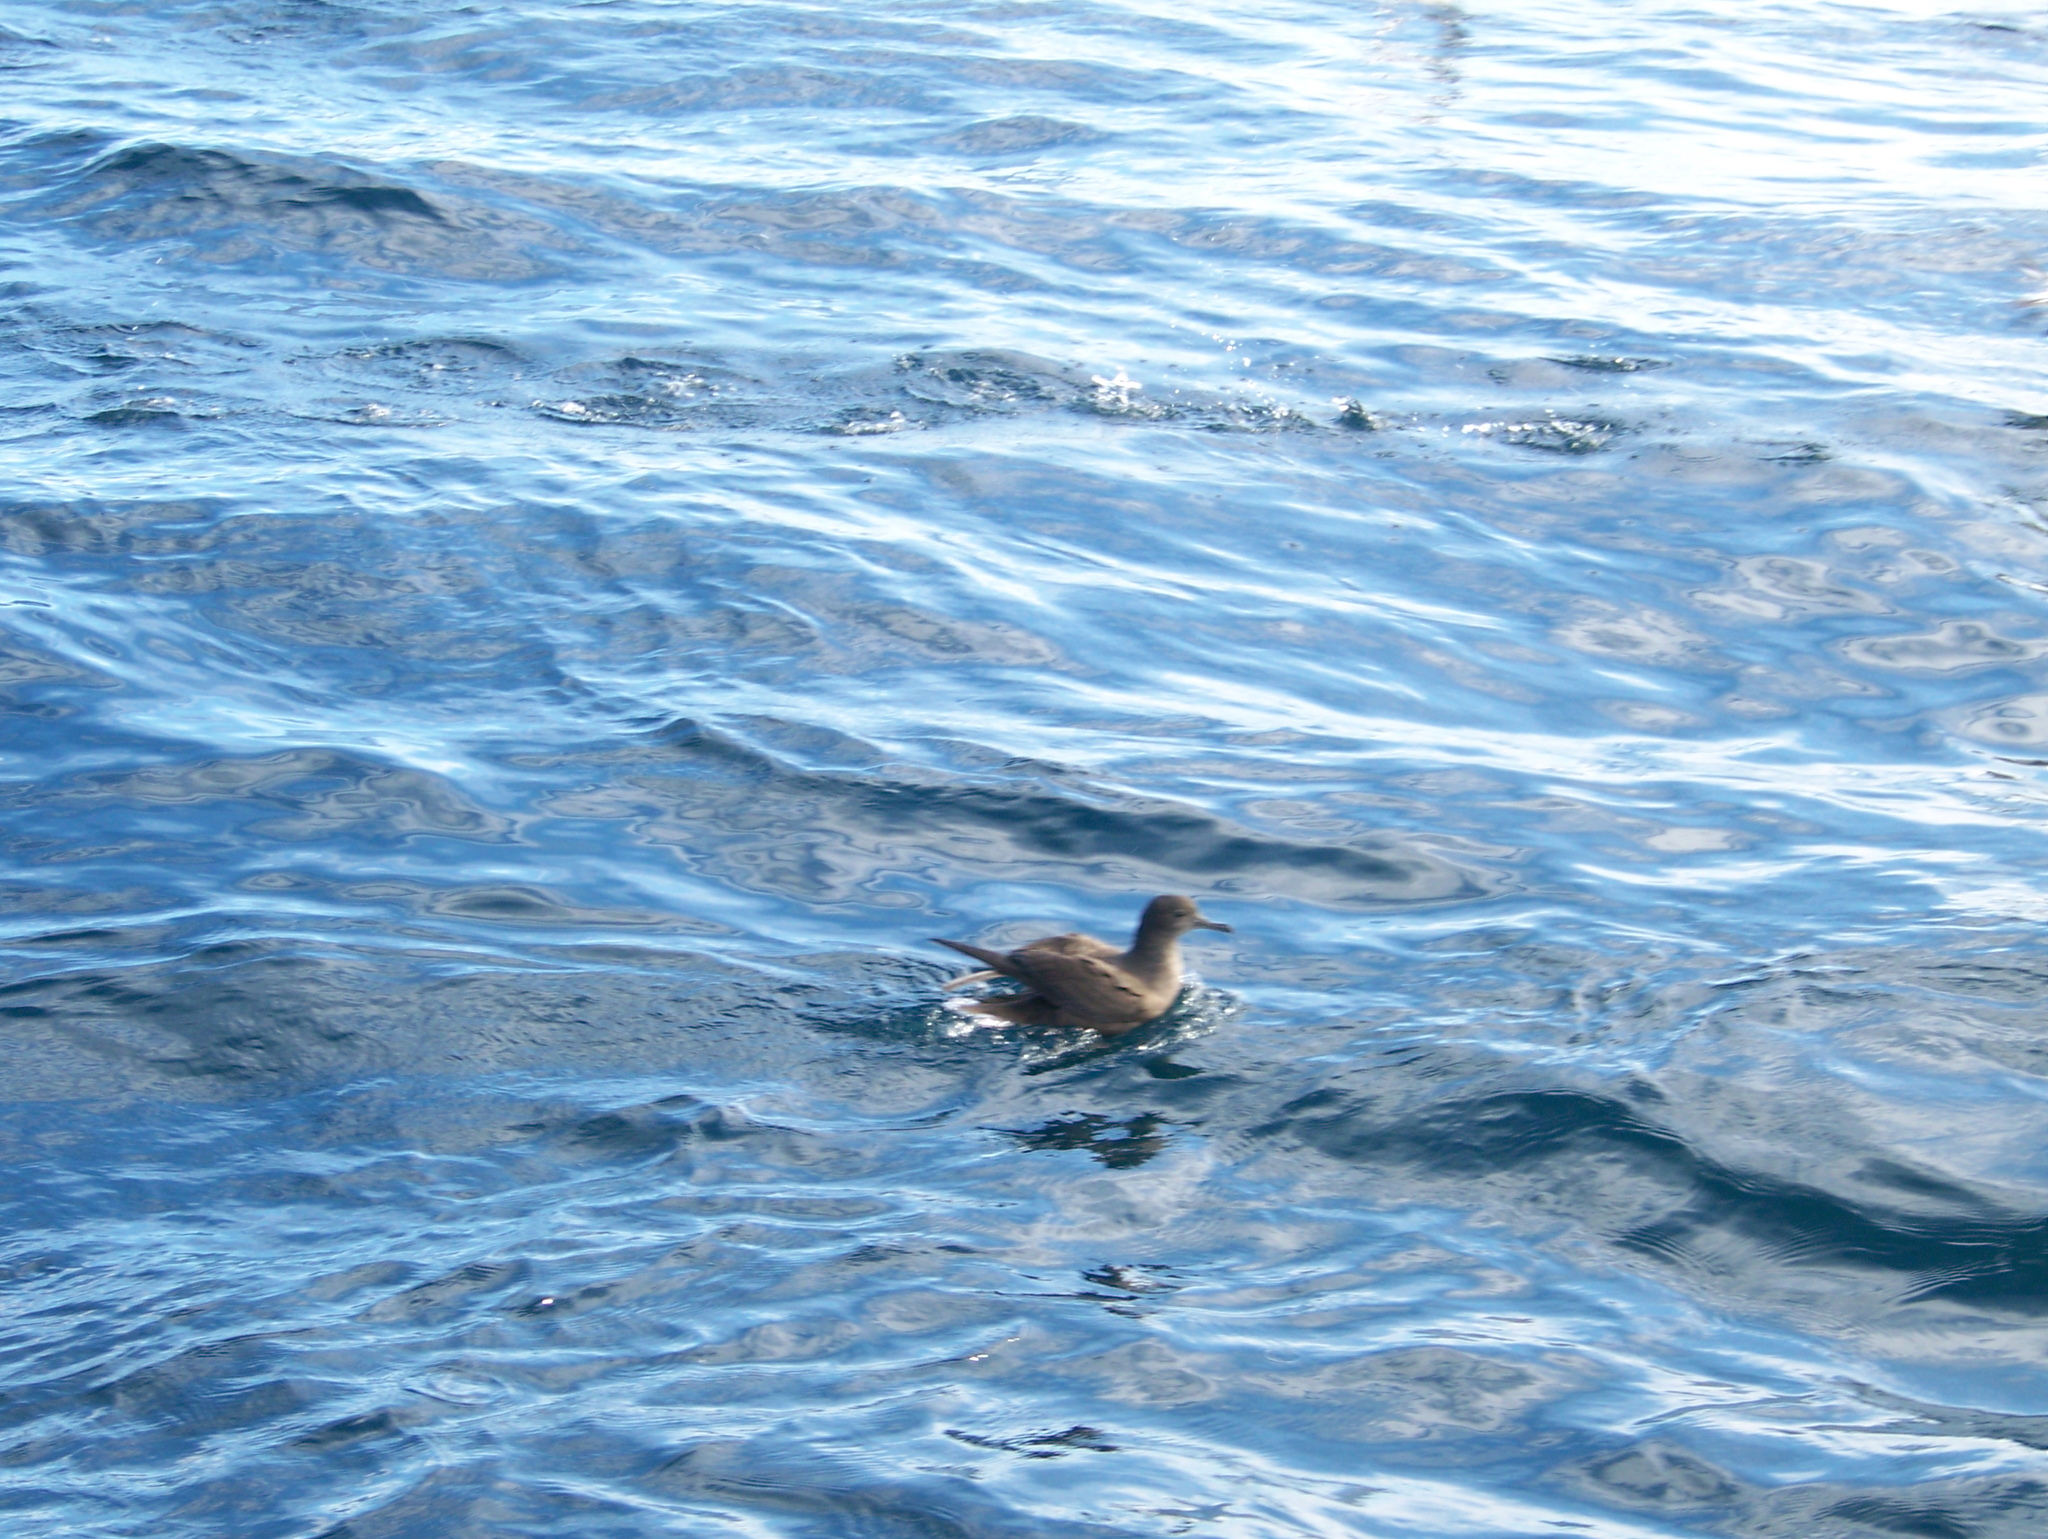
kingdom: Animalia
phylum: Chordata
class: Aves
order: Procellariiformes
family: Procellariidae
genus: Puffinus
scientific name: Puffinus griseus
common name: Sooty shearwater
